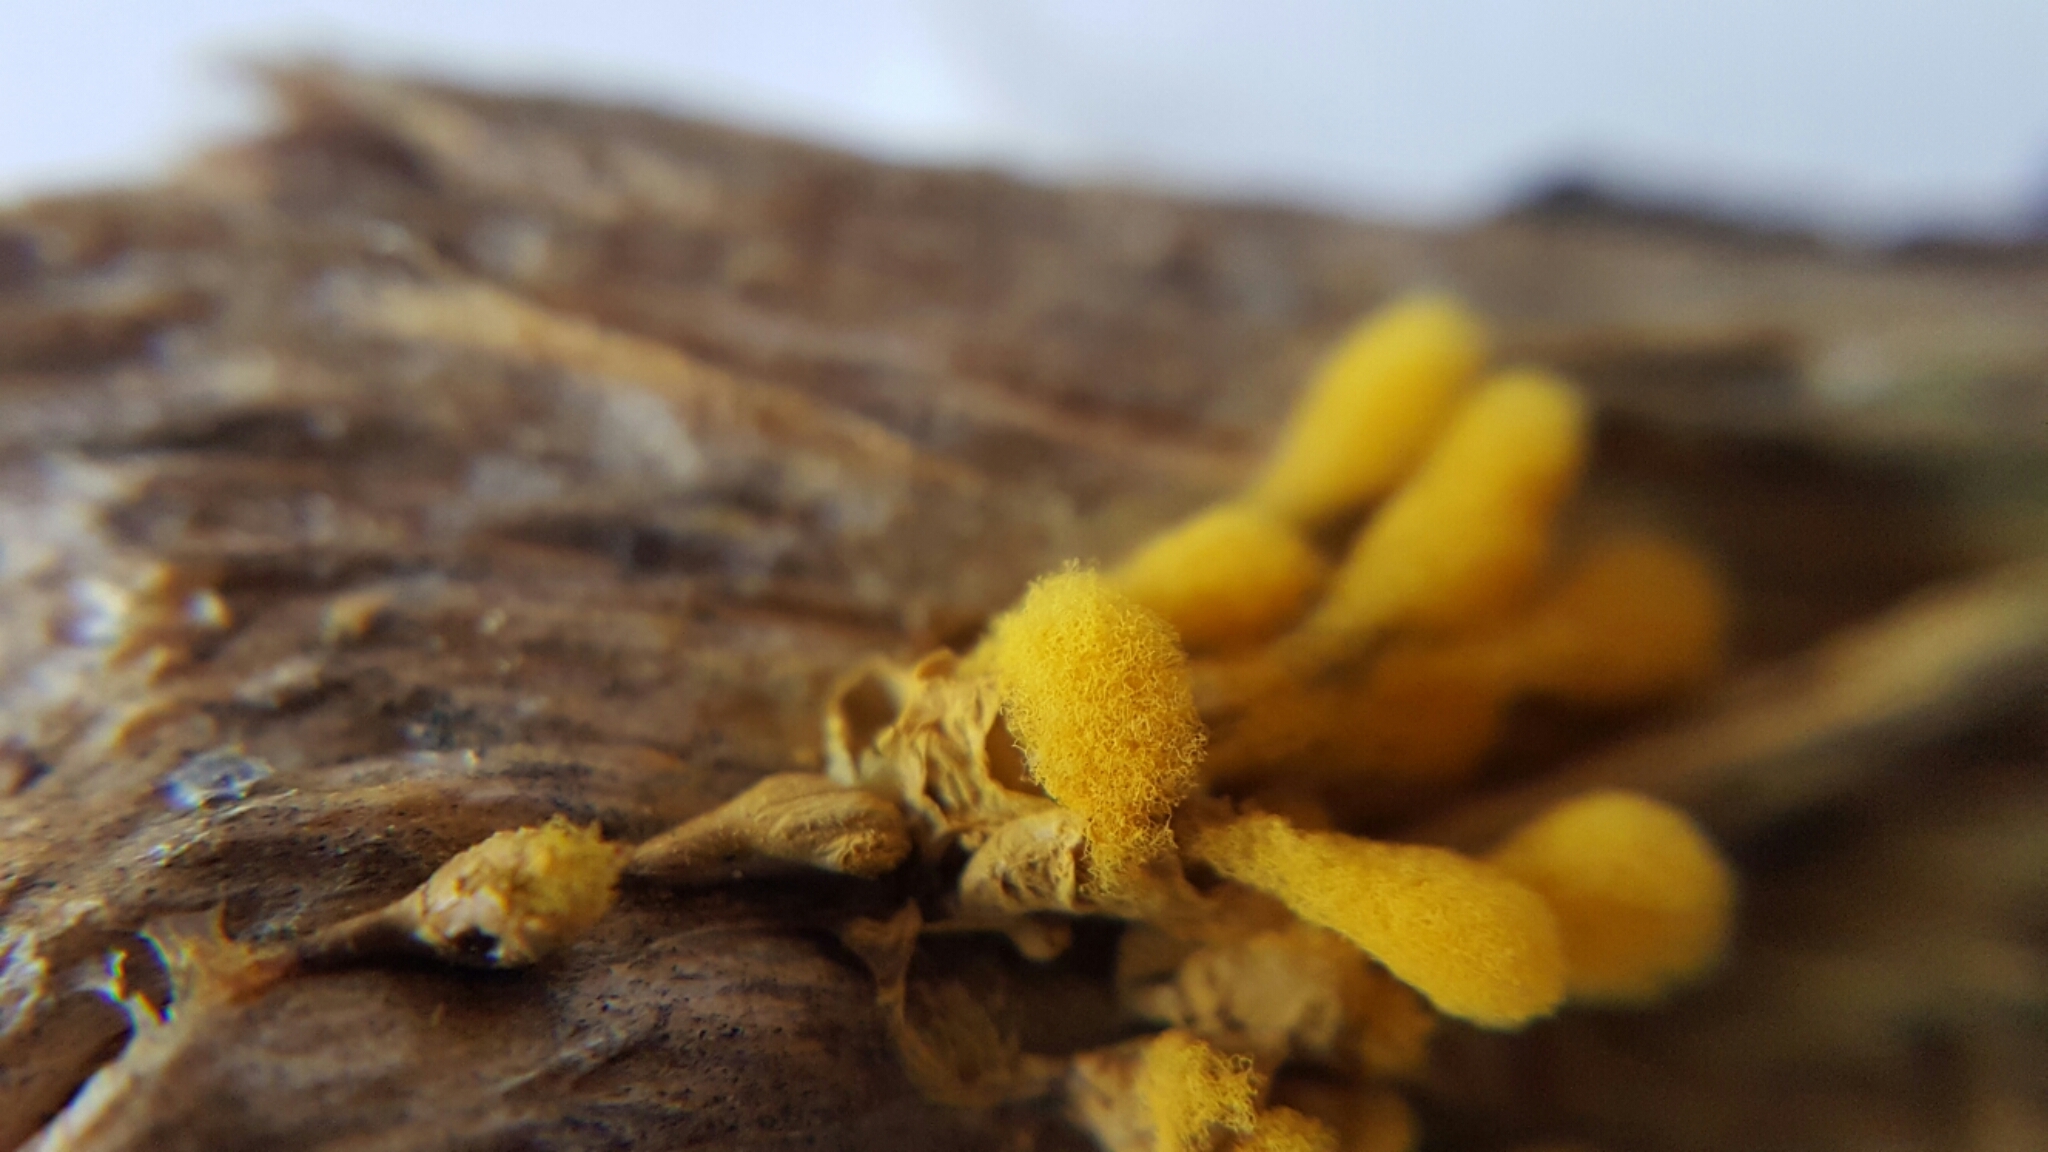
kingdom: Protozoa
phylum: Mycetozoa
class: Myxomycetes
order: Trichiales
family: Arcyriaceae
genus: Arcyria
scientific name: Arcyria versicolor
